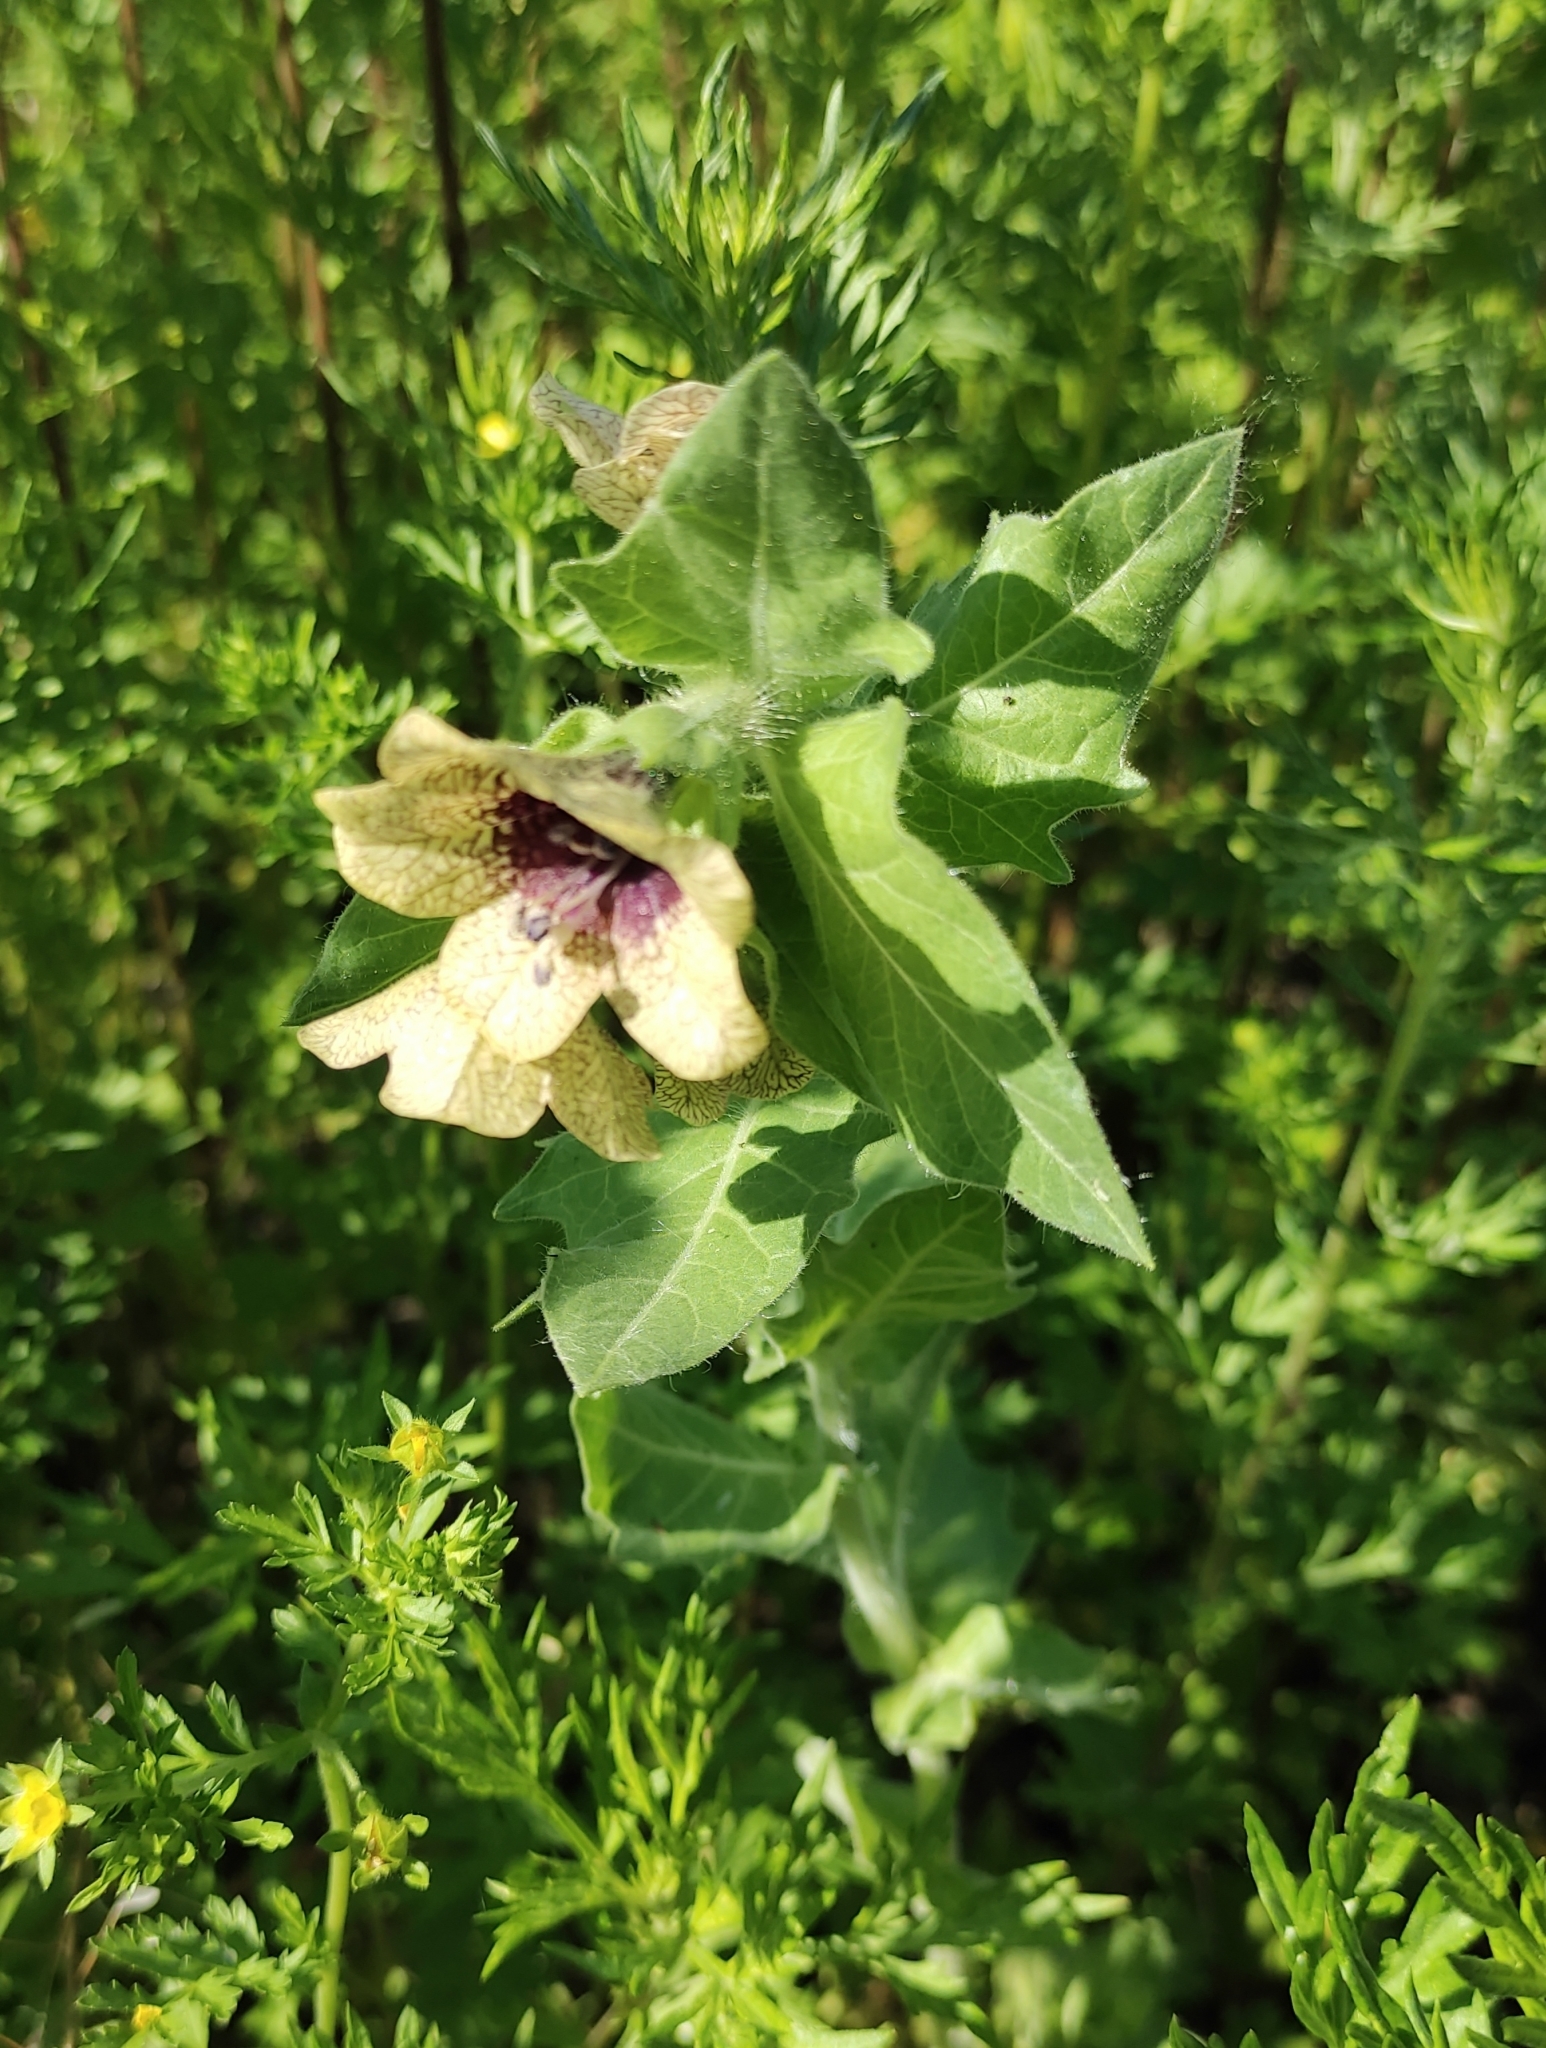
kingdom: Plantae
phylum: Tracheophyta
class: Magnoliopsida
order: Solanales
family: Solanaceae
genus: Hyoscyamus
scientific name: Hyoscyamus niger
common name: Henbane
